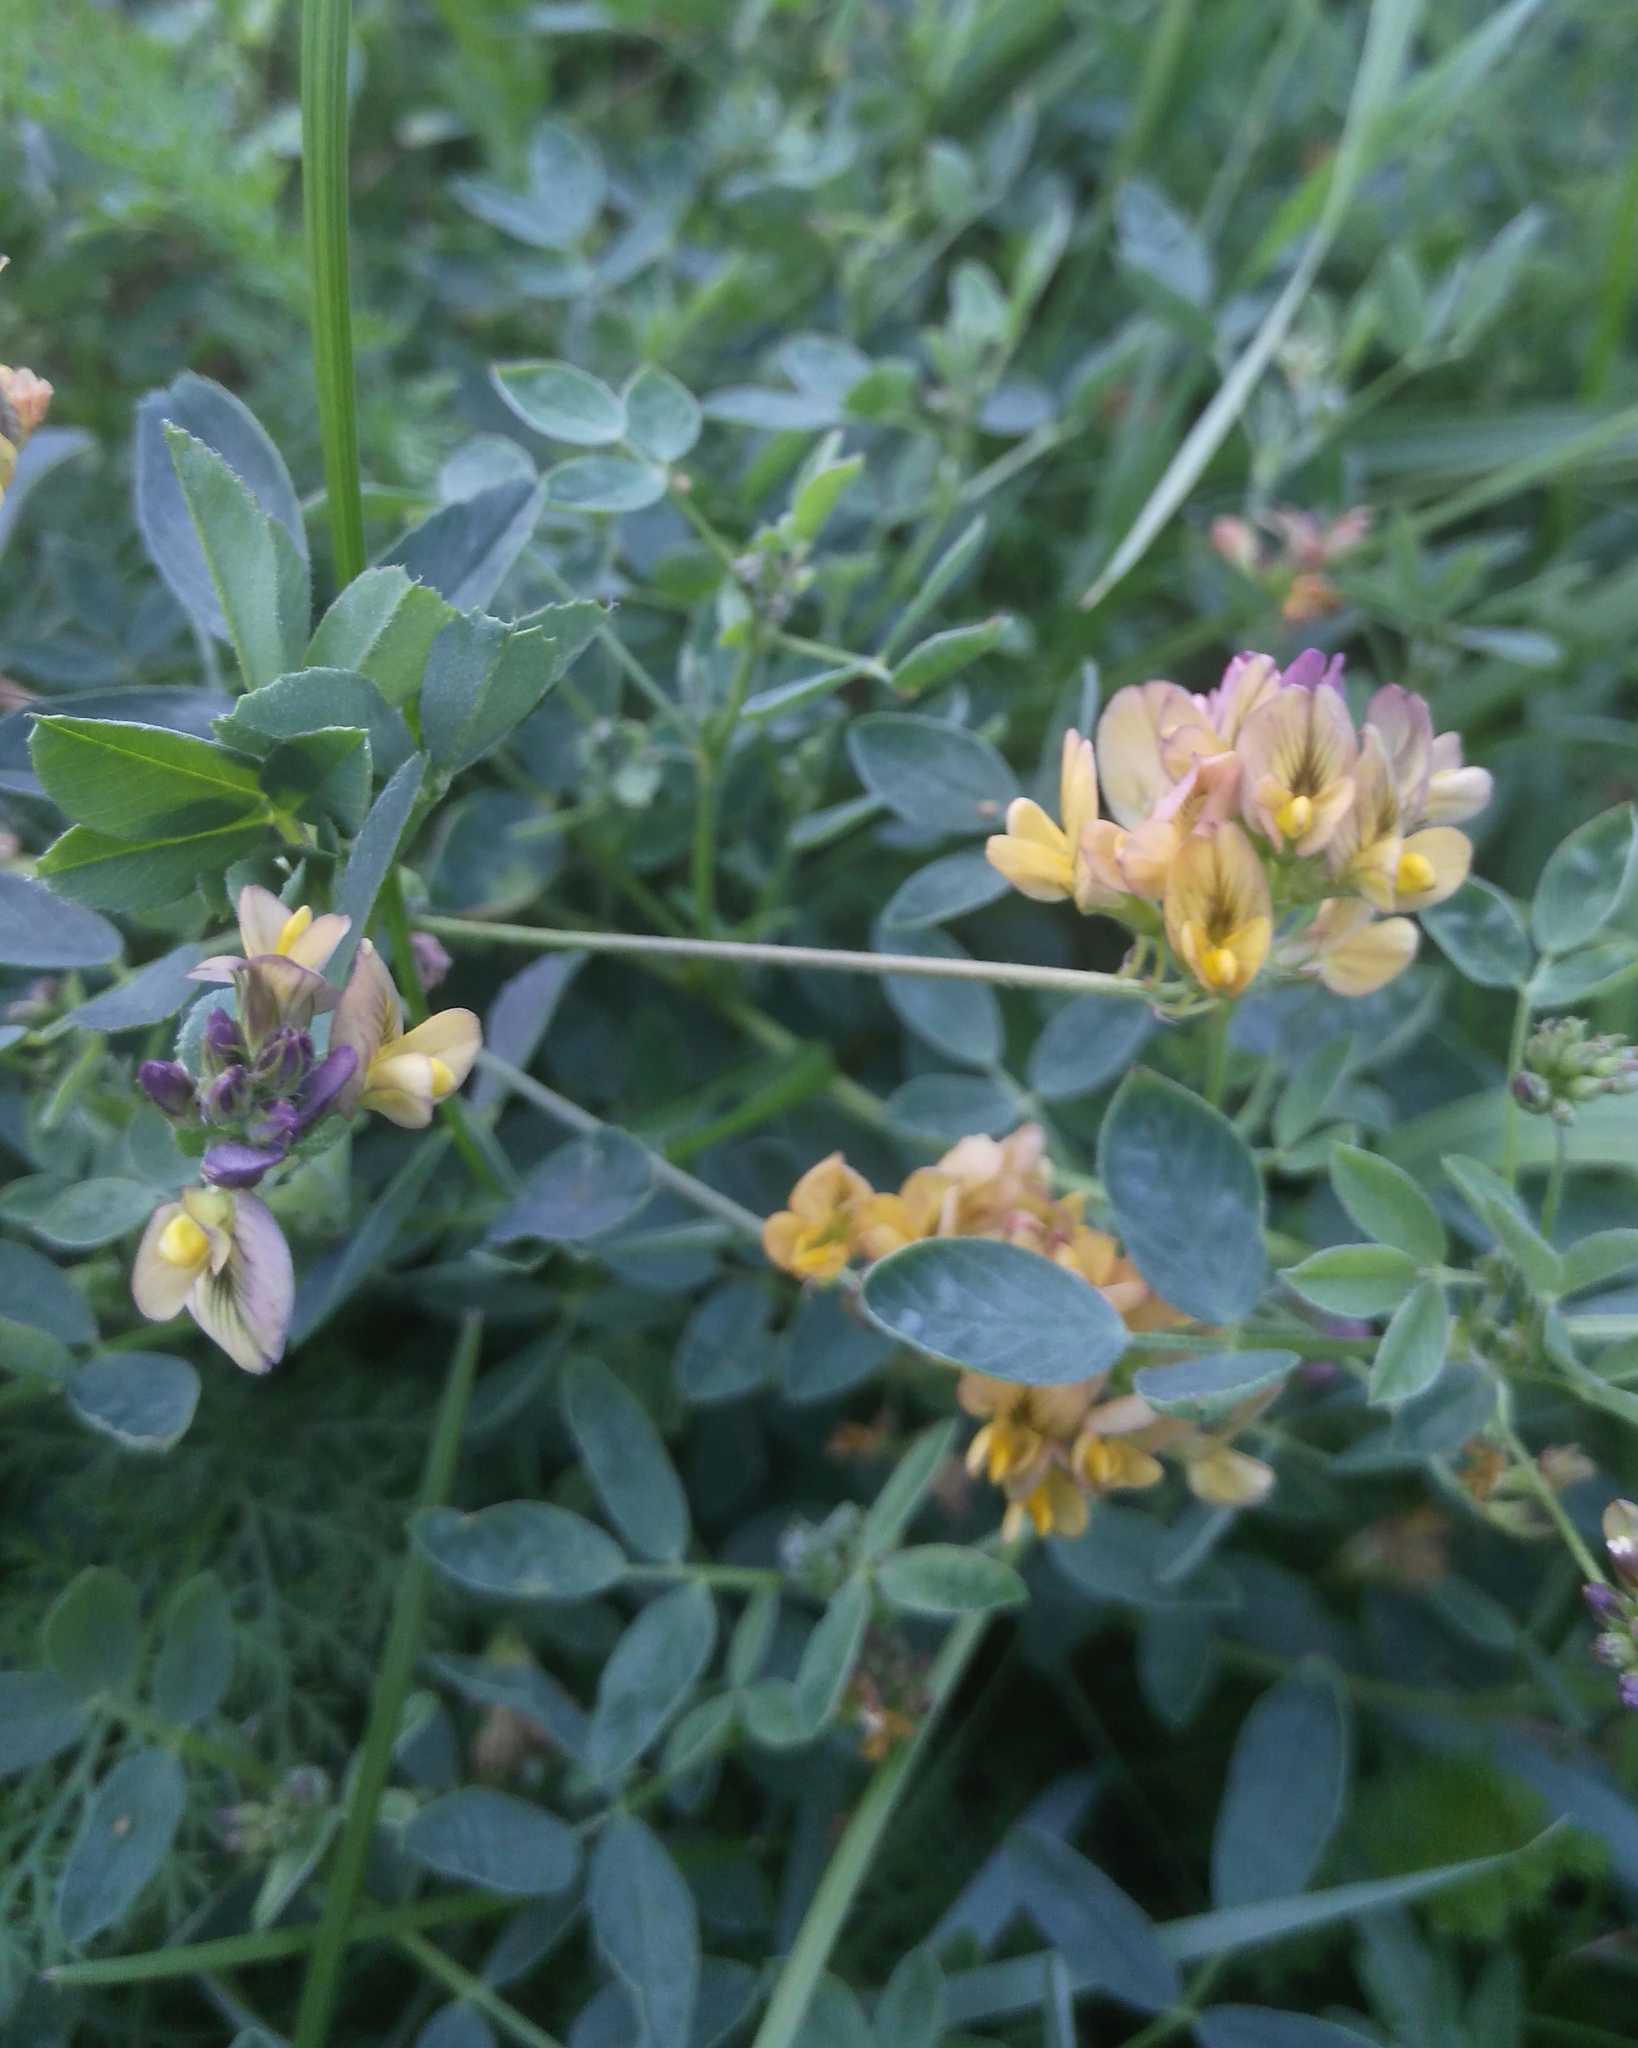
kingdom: Plantae
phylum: Tracheophyta
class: Magnoliopsida
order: Fabales
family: Fabaceae
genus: Medicago
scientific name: Medicago varia
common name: Sand lucerne
